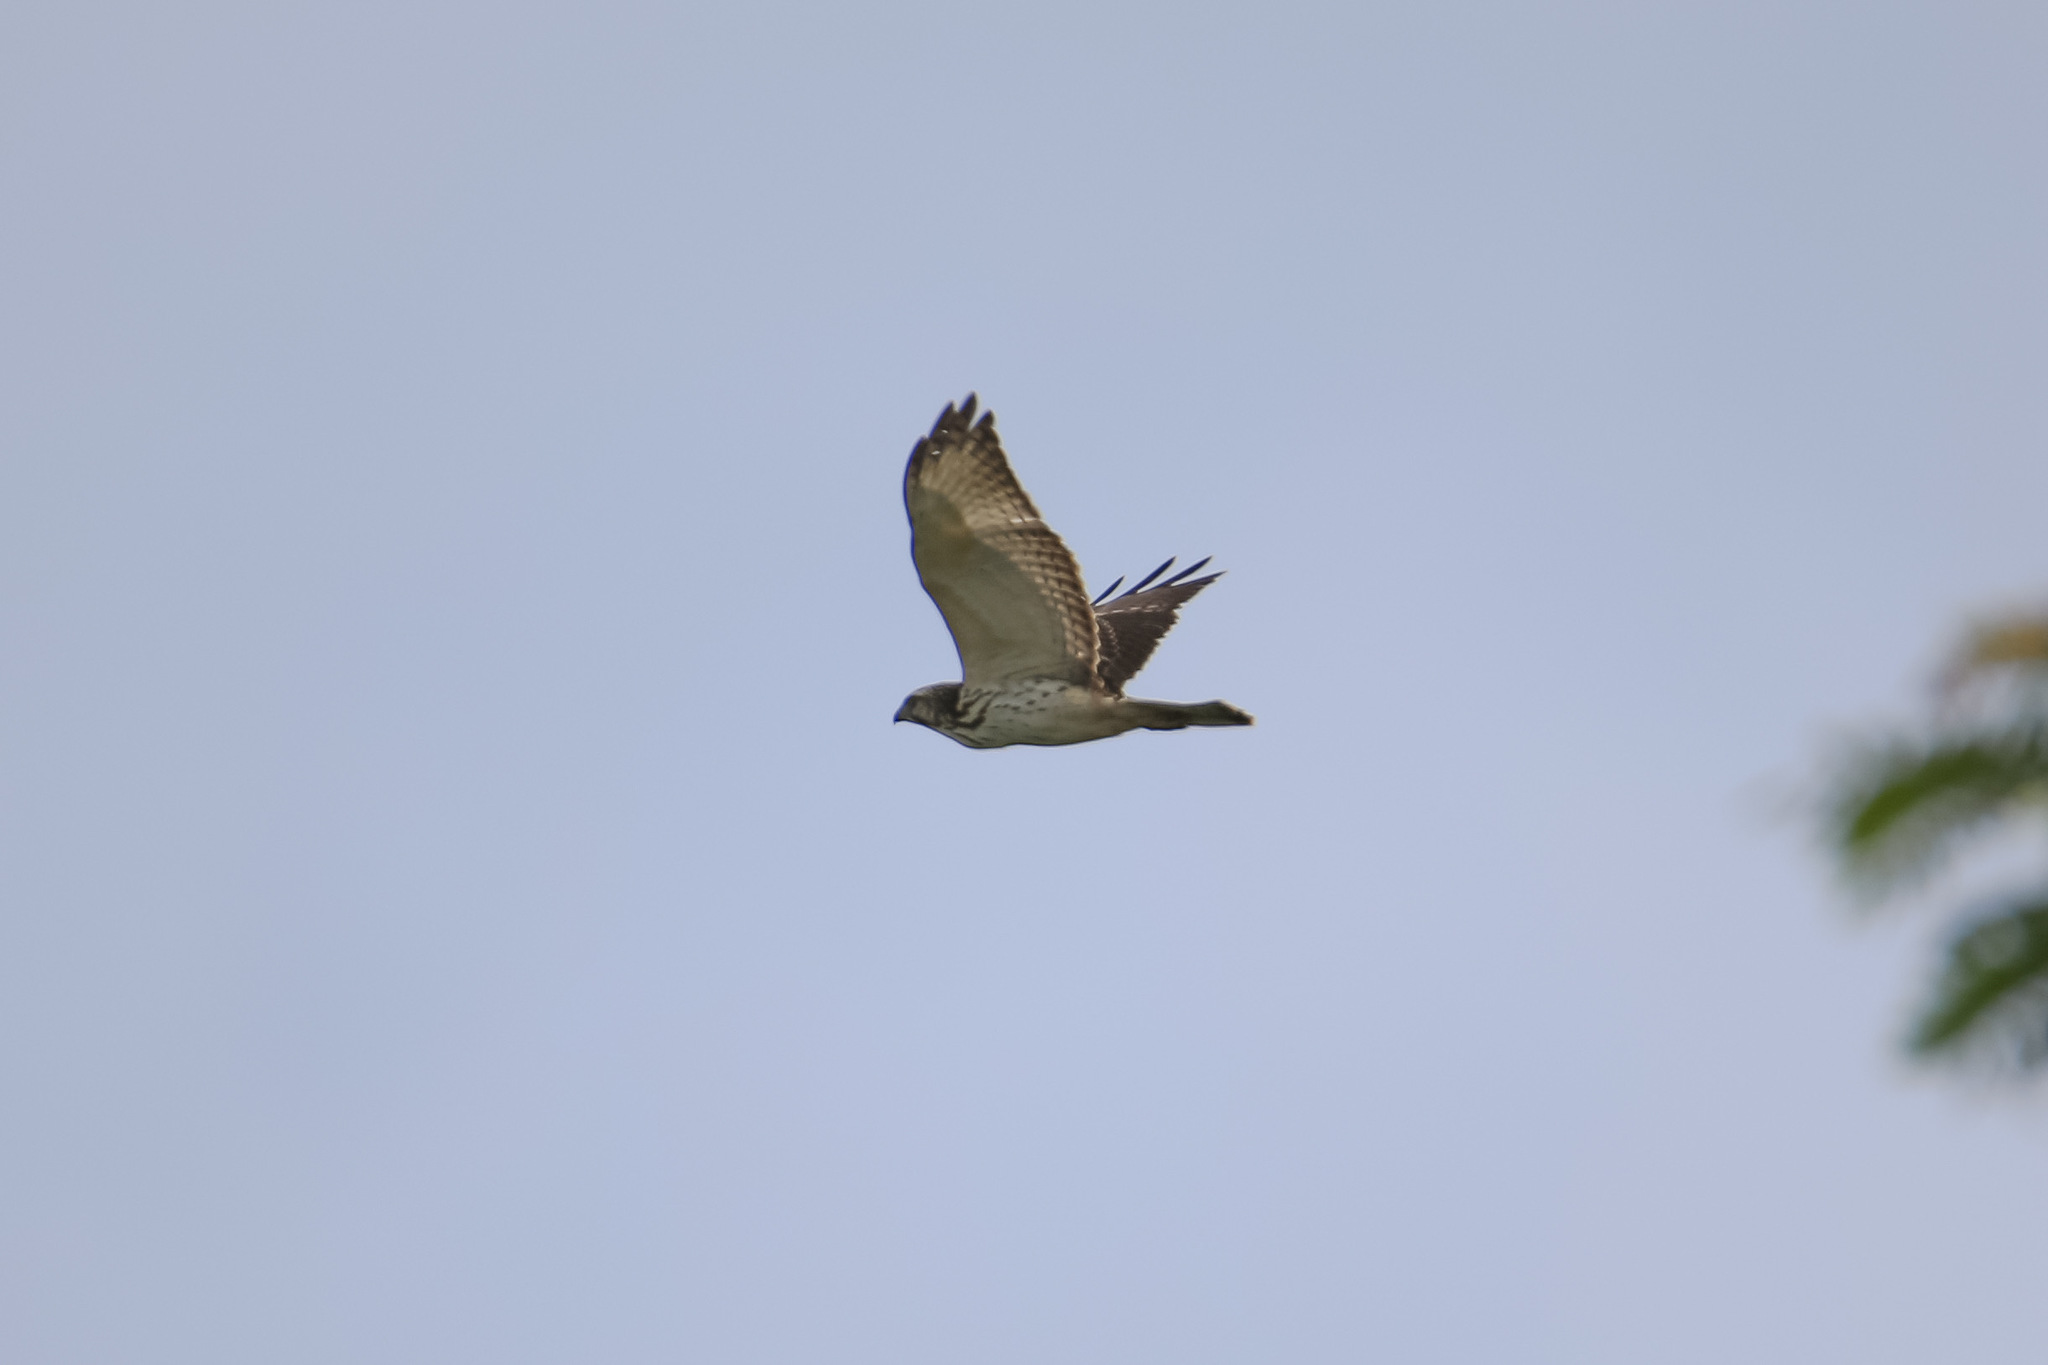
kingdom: Animalia
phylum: Chordata
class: Aves
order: Accipitriformes
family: Accipitridae
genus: Buteo
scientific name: Buteo platypterus
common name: Broad-winged hawk
